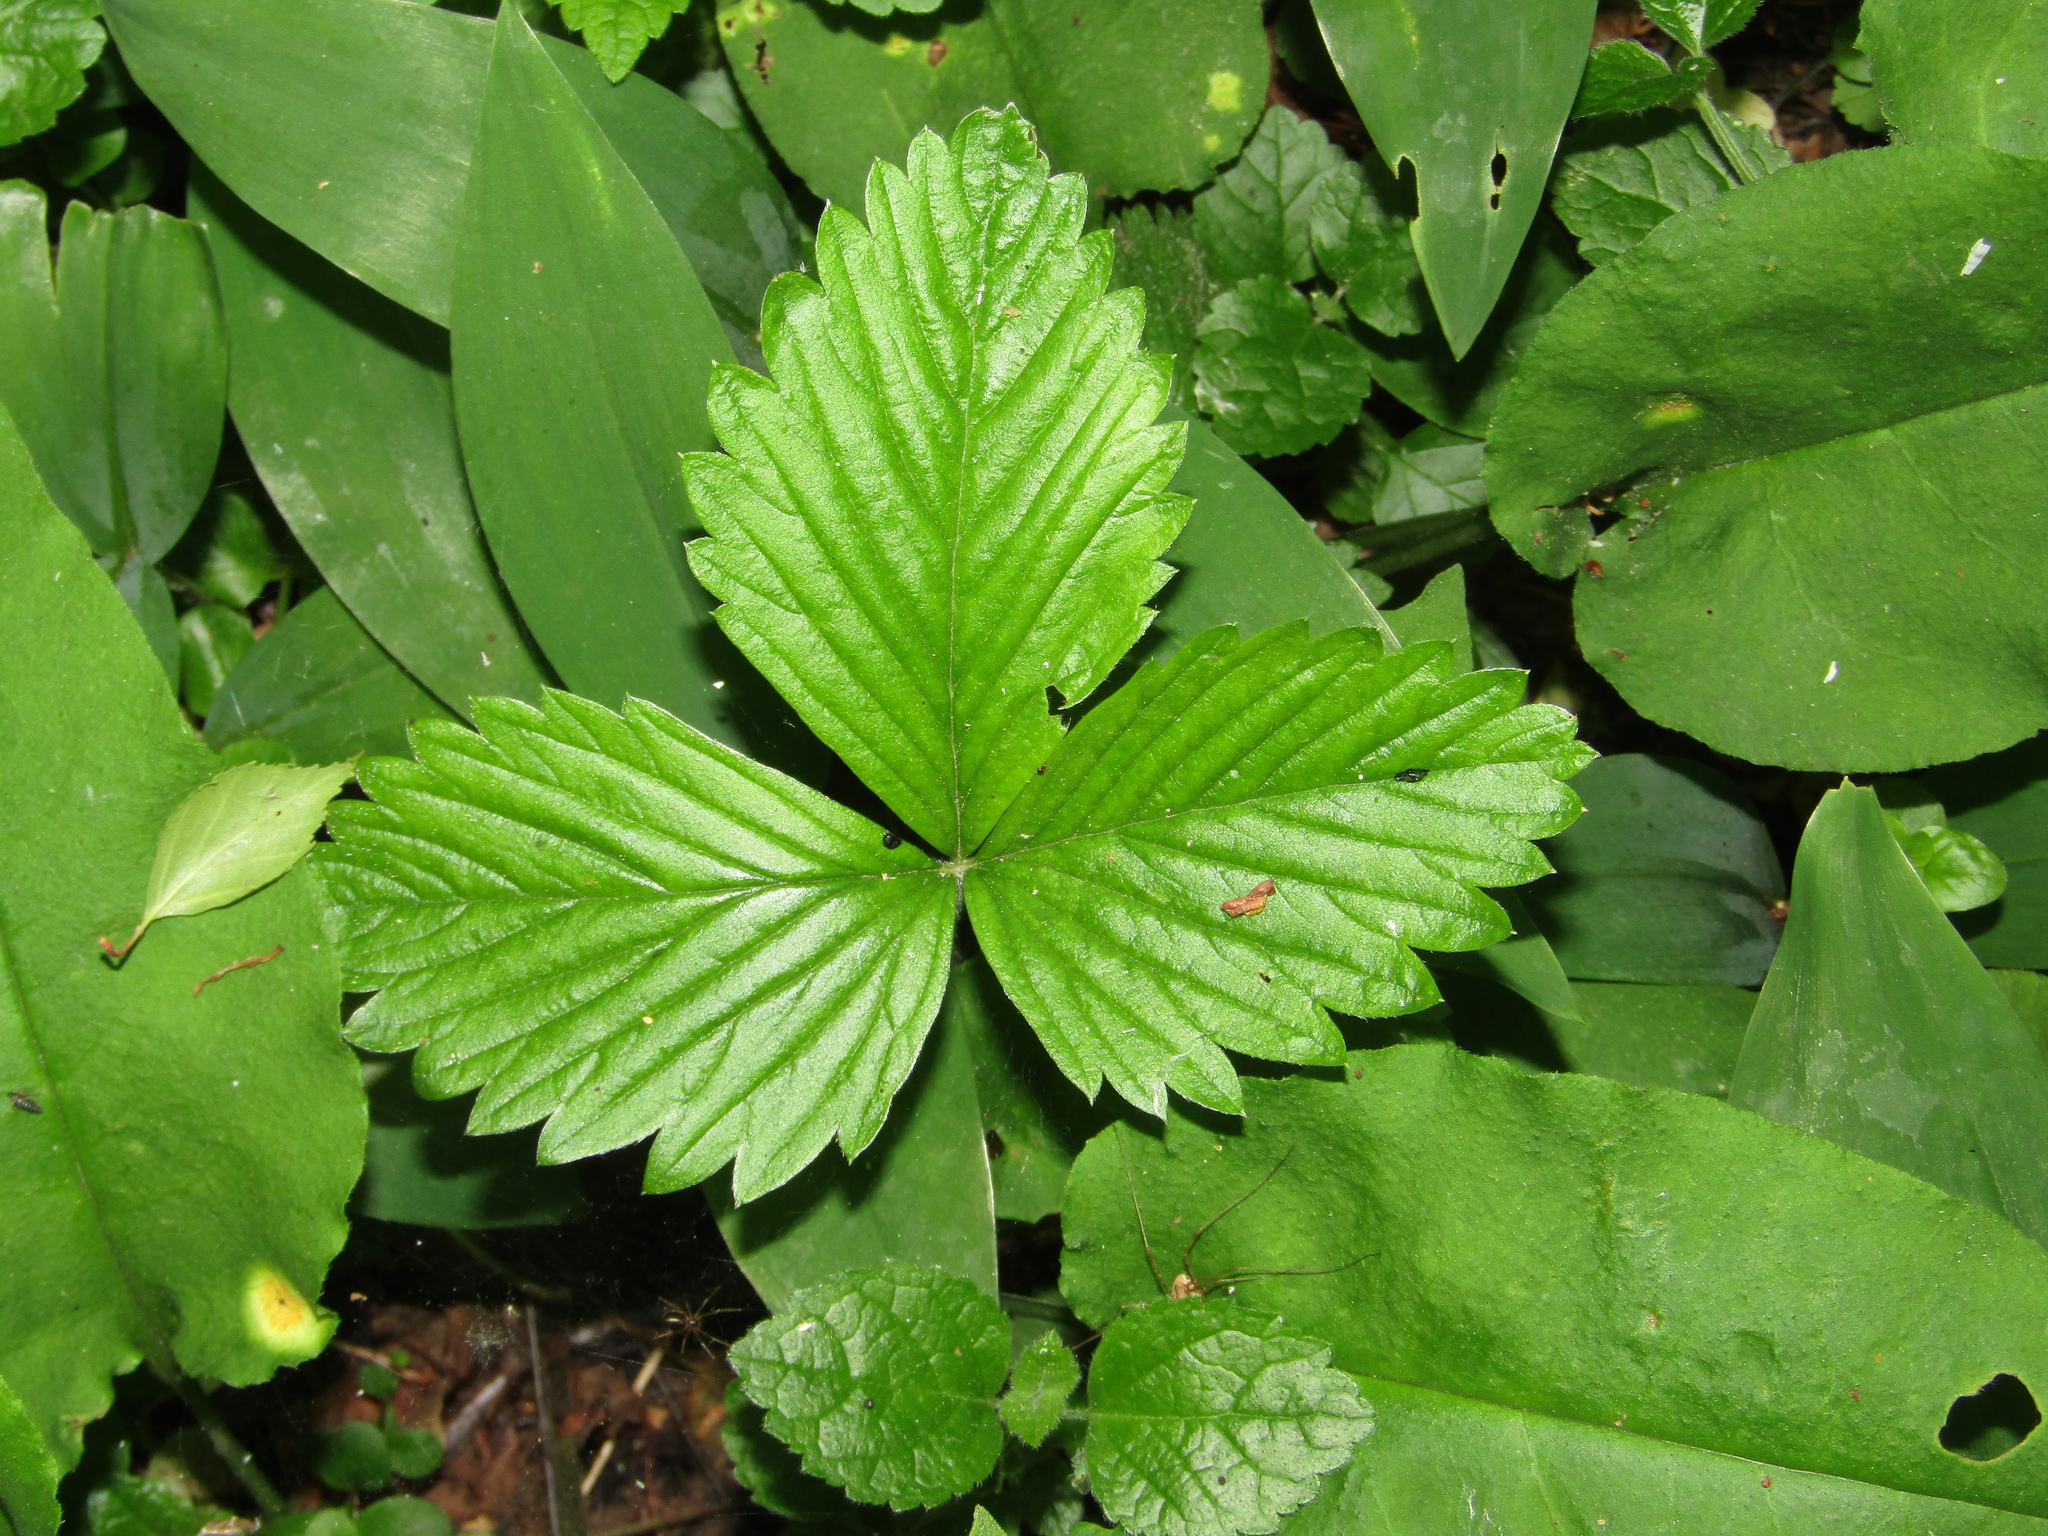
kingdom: Plantae
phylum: Tracheophyta
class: Magnoliopsida
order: Rosales
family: Rosaceae
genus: Fragaria
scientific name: Fragaria vesca
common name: Wild strawberry
